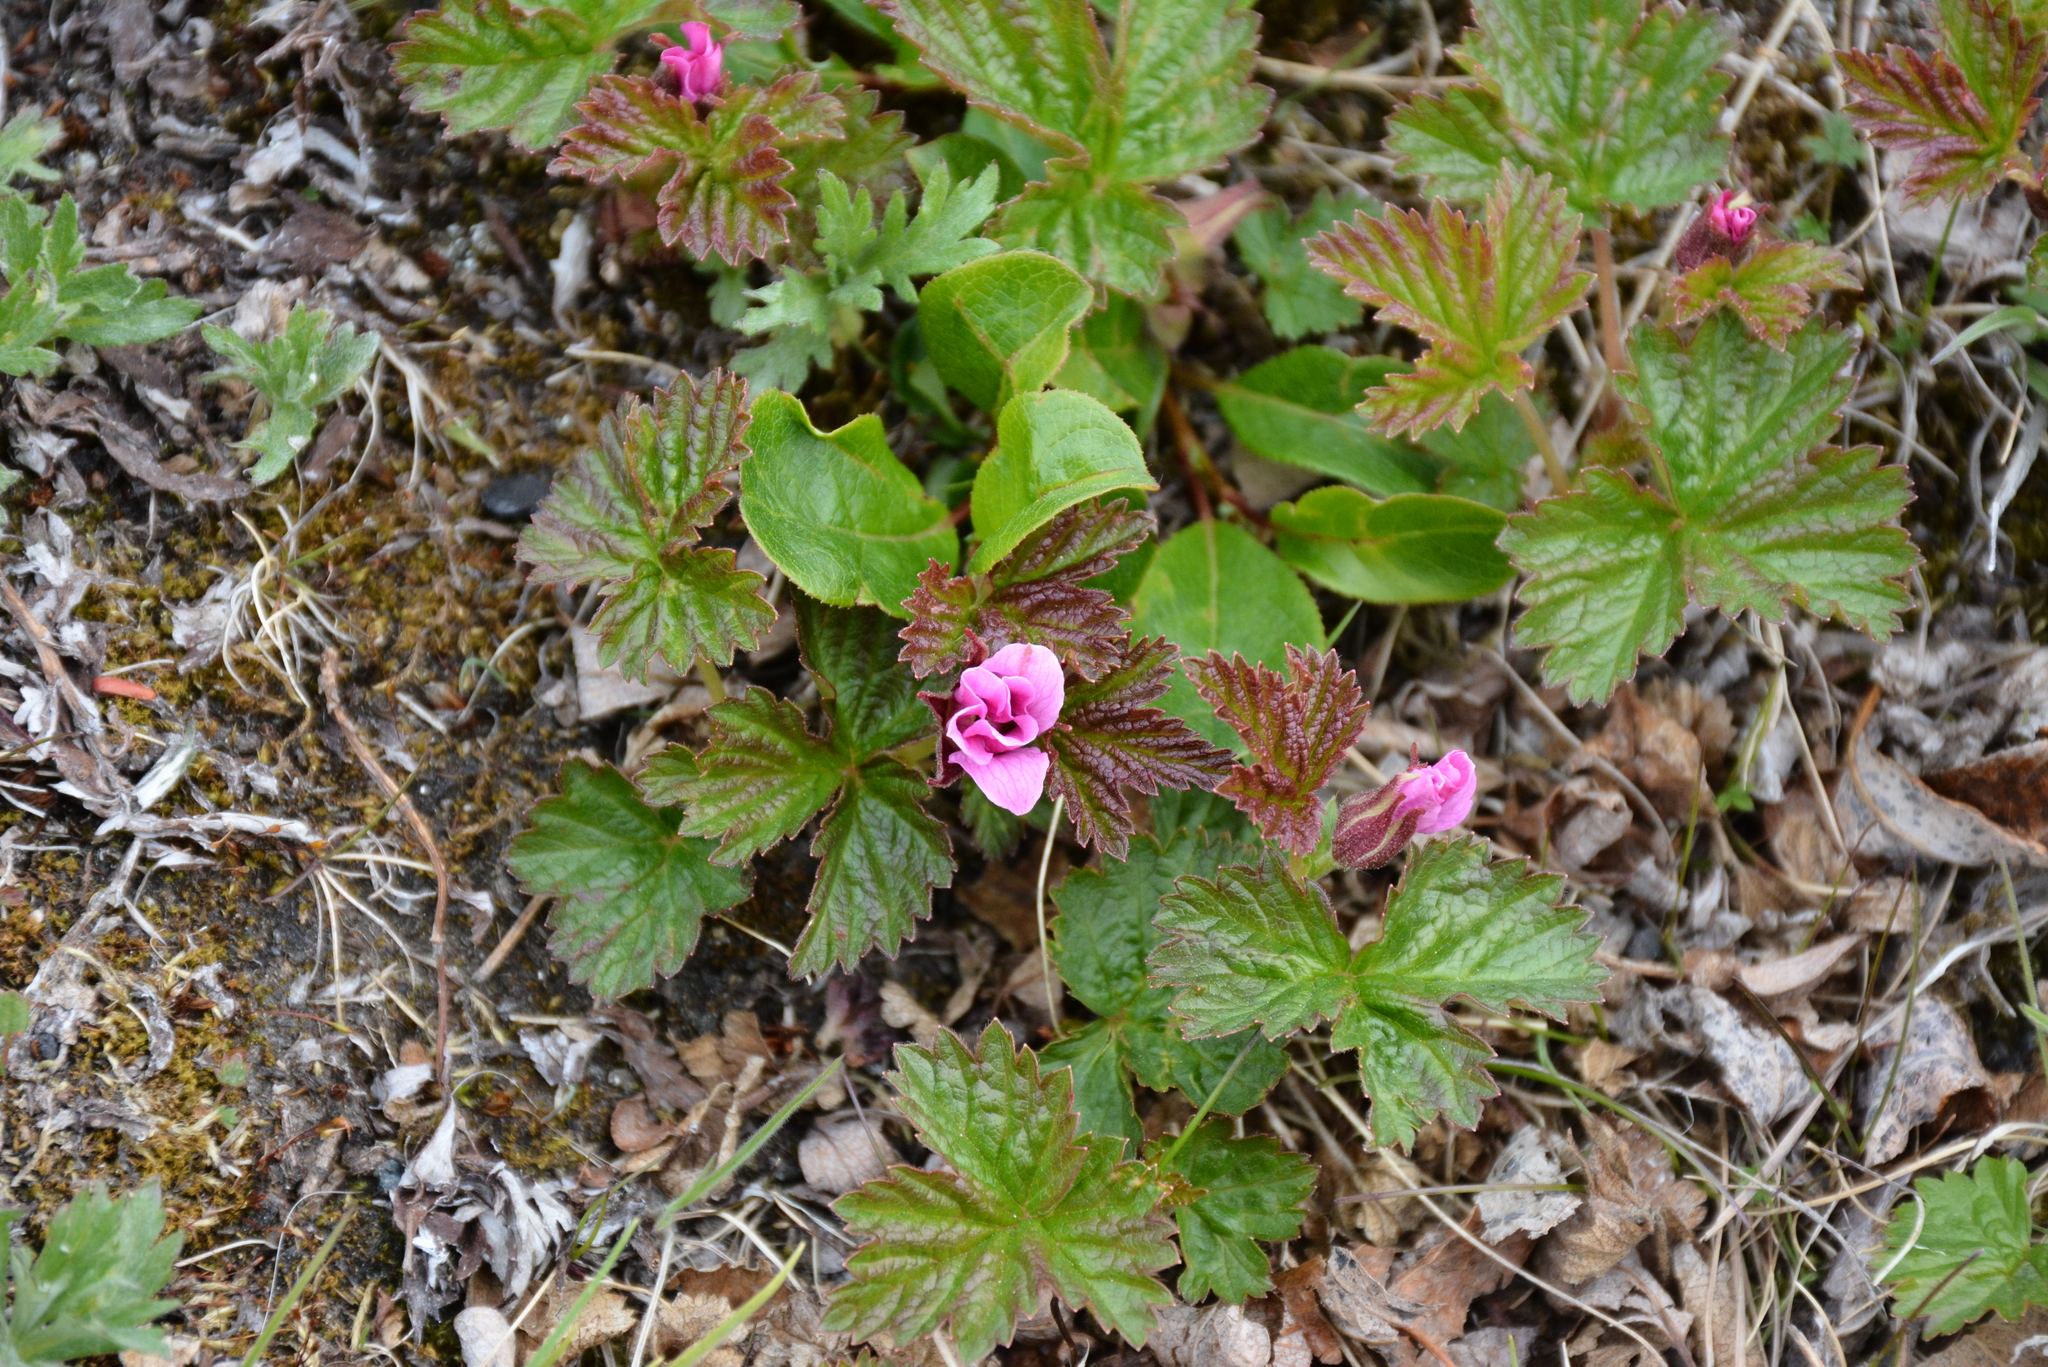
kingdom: Plantae
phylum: Tracheophyta
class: Magnoliopsida
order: Rosales
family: Rosaceae
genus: Rubus
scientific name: Rubus arcticus
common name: Arctic bramble
